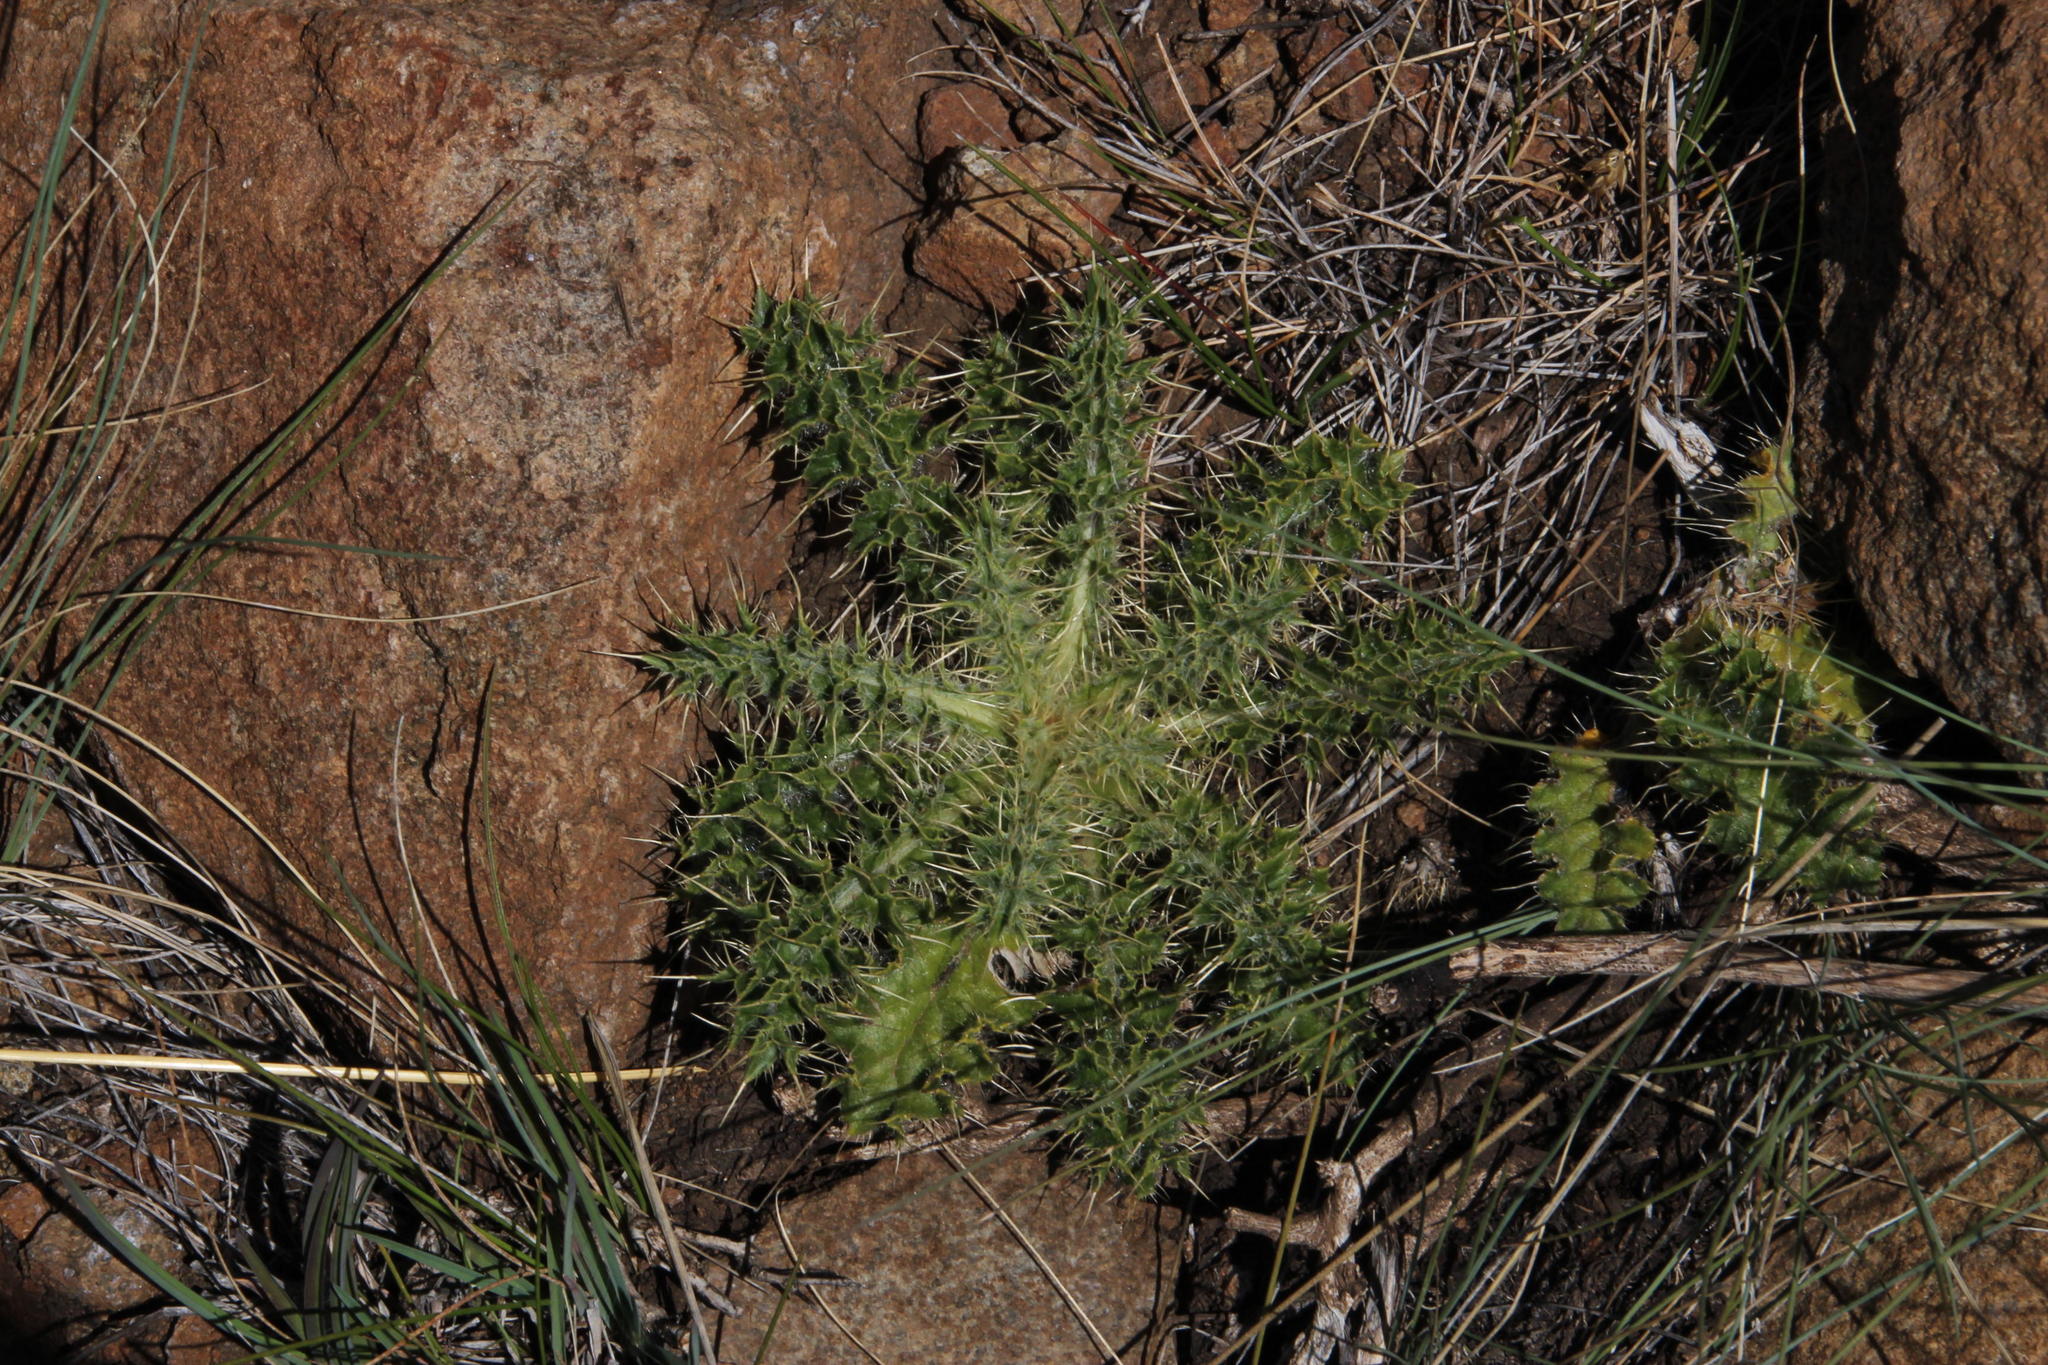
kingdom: Plantae
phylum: Tracheophyta
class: Magnoliopsida
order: Asterales
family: Asteraceae
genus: Berkheya
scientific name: Berkheya carlinifolia
